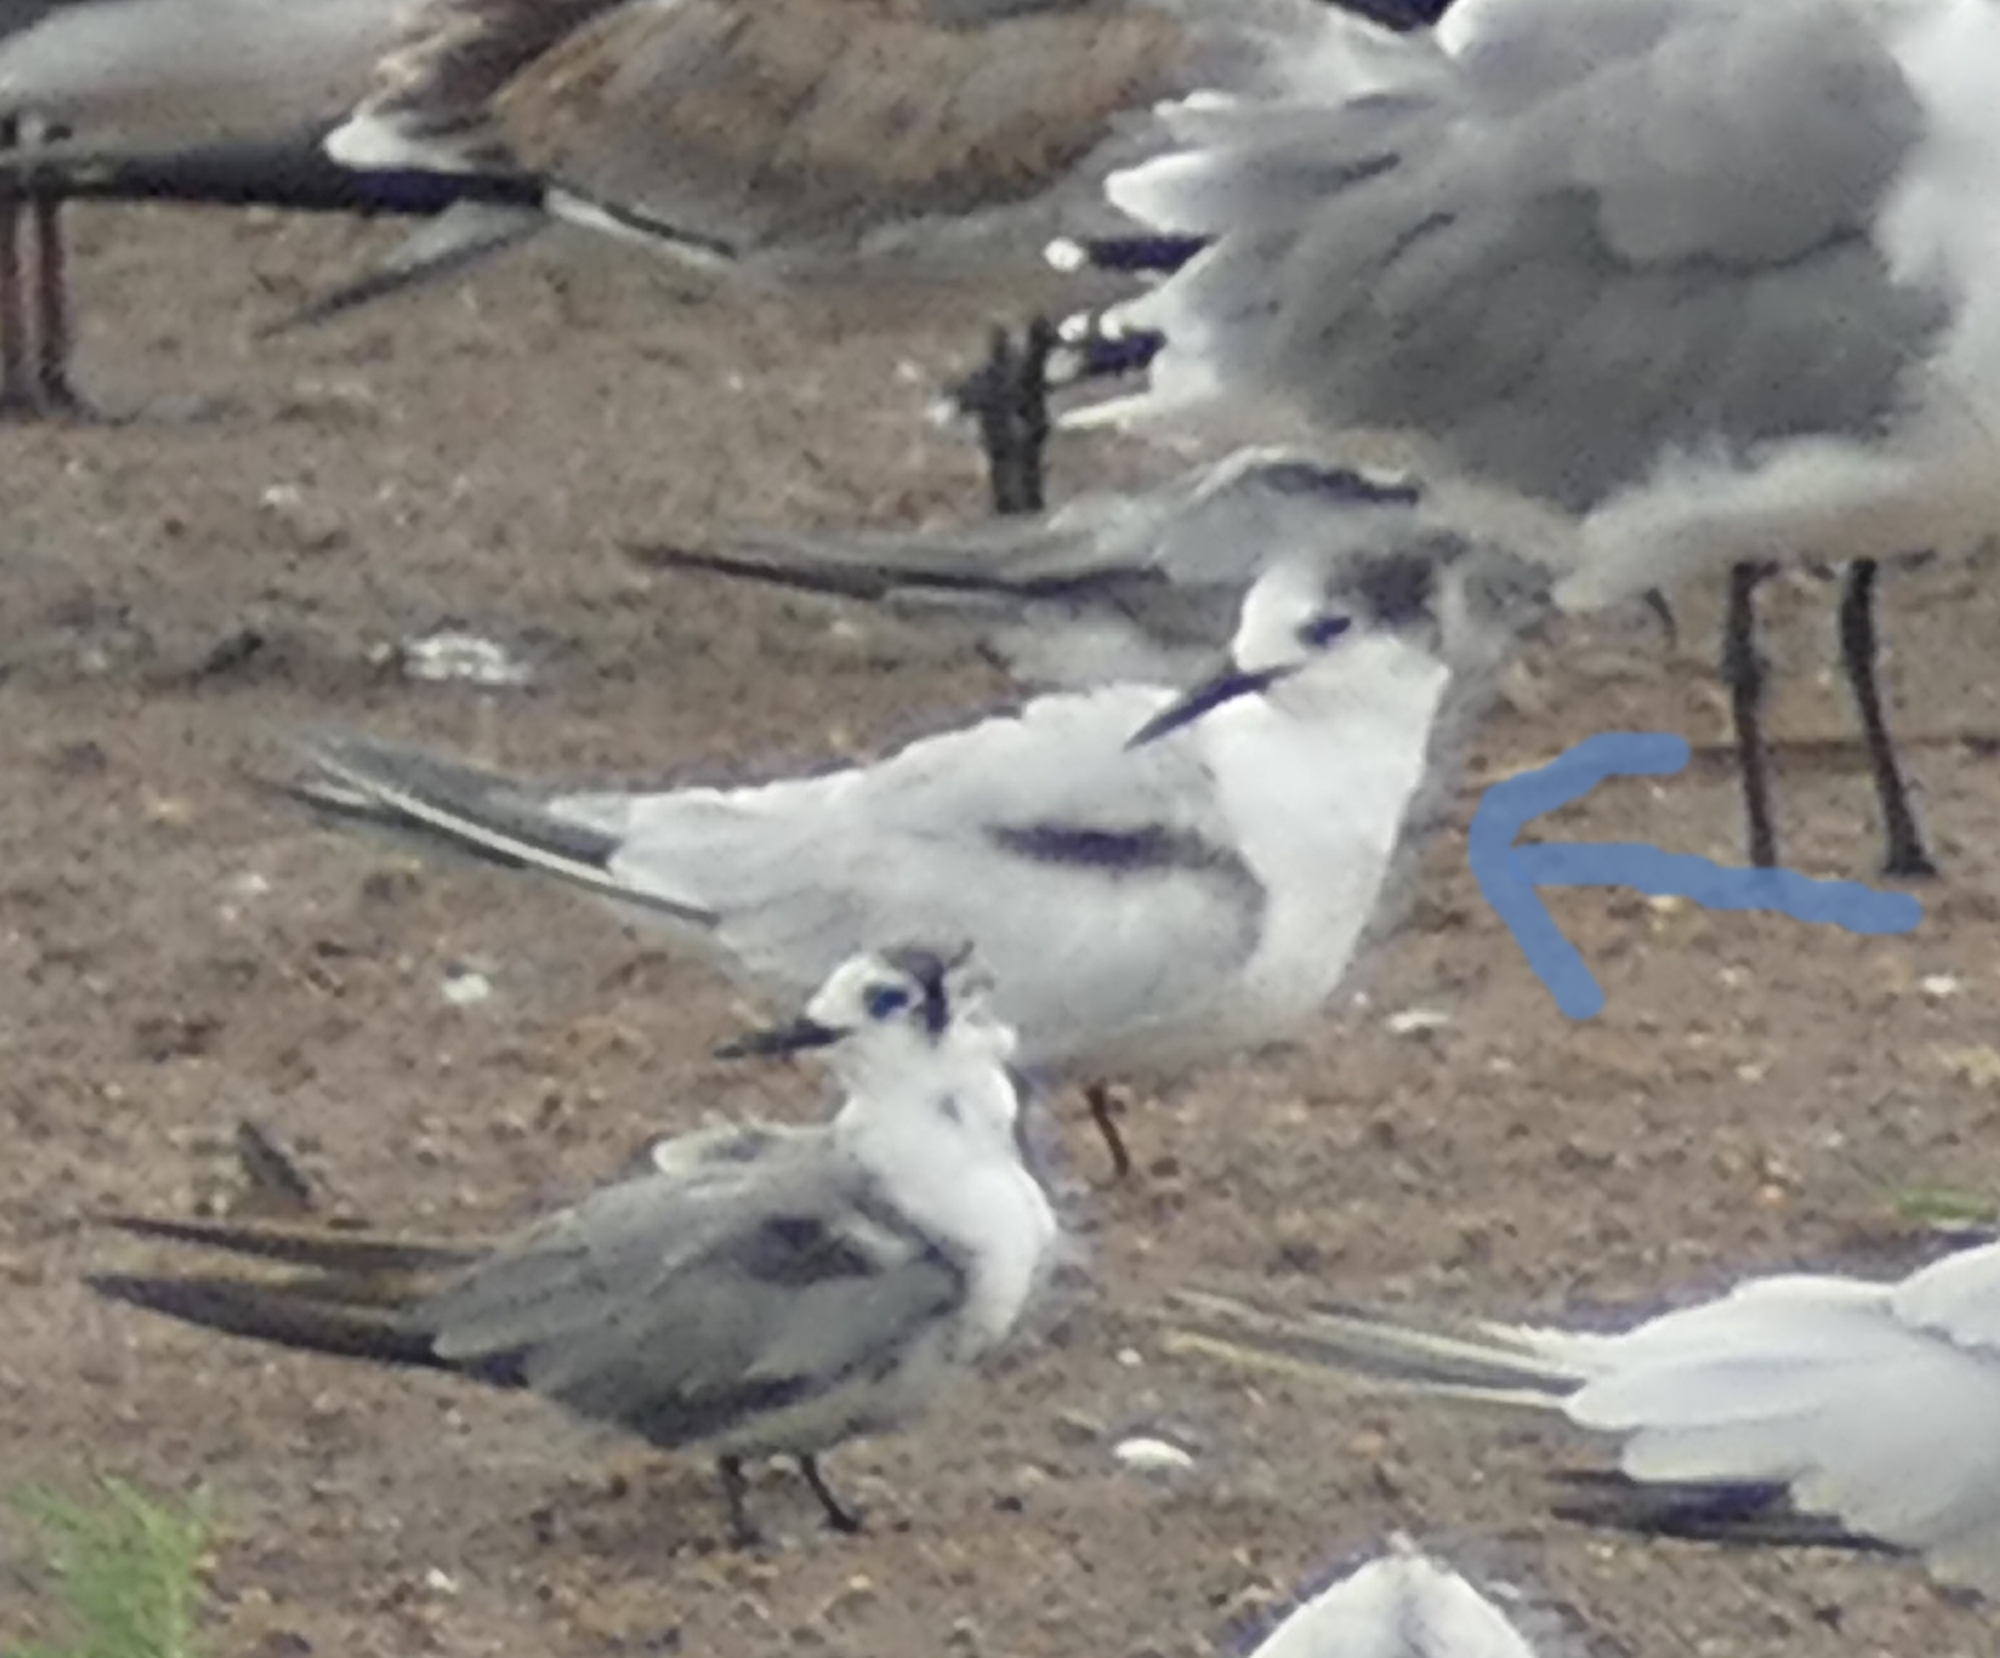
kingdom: Animalia
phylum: Chordata
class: Aves
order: Charadriiformes
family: Laridae
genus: Sterna
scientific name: Sterna hirundo
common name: Common tern
